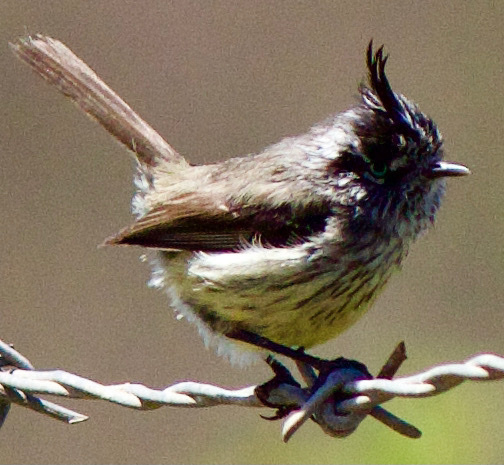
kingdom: Animalia
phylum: Chordata
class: Aves
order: Passeriformes
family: Tyrannidae
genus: Anairetes
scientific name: Anairetes parulus
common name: Tufted tit-tyrant
